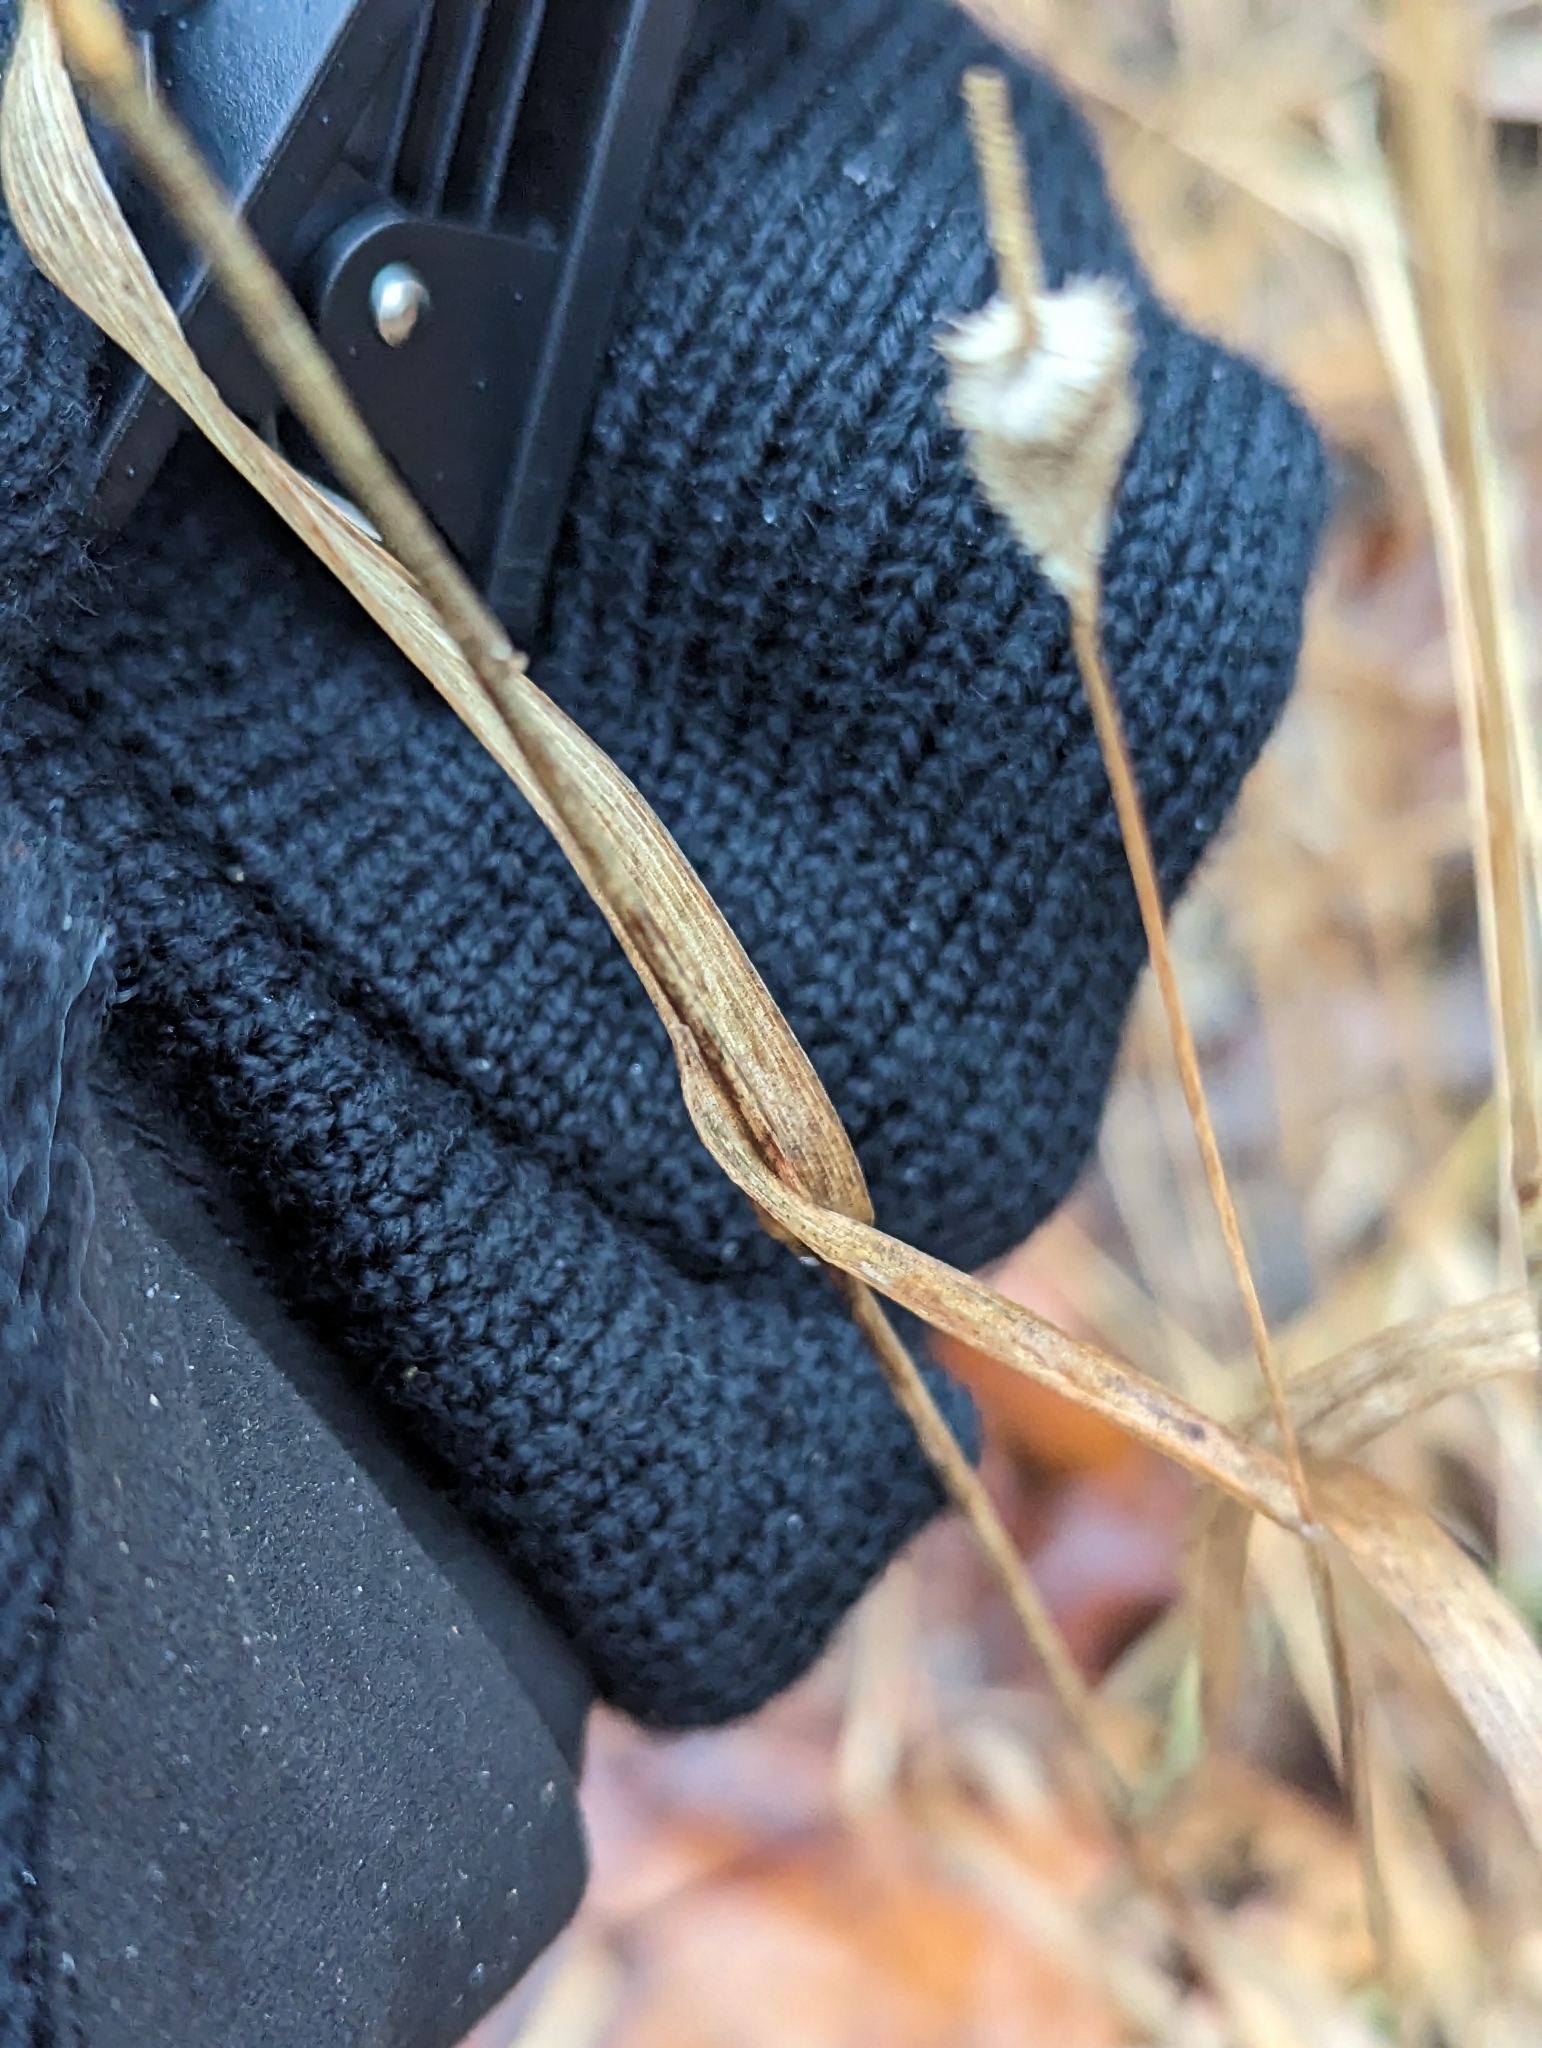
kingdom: Plantae
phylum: Tracheophyta
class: Liliopsida
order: Poales
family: Poaceae
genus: Phleum
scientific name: Phleum pratense
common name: Timothy grass
